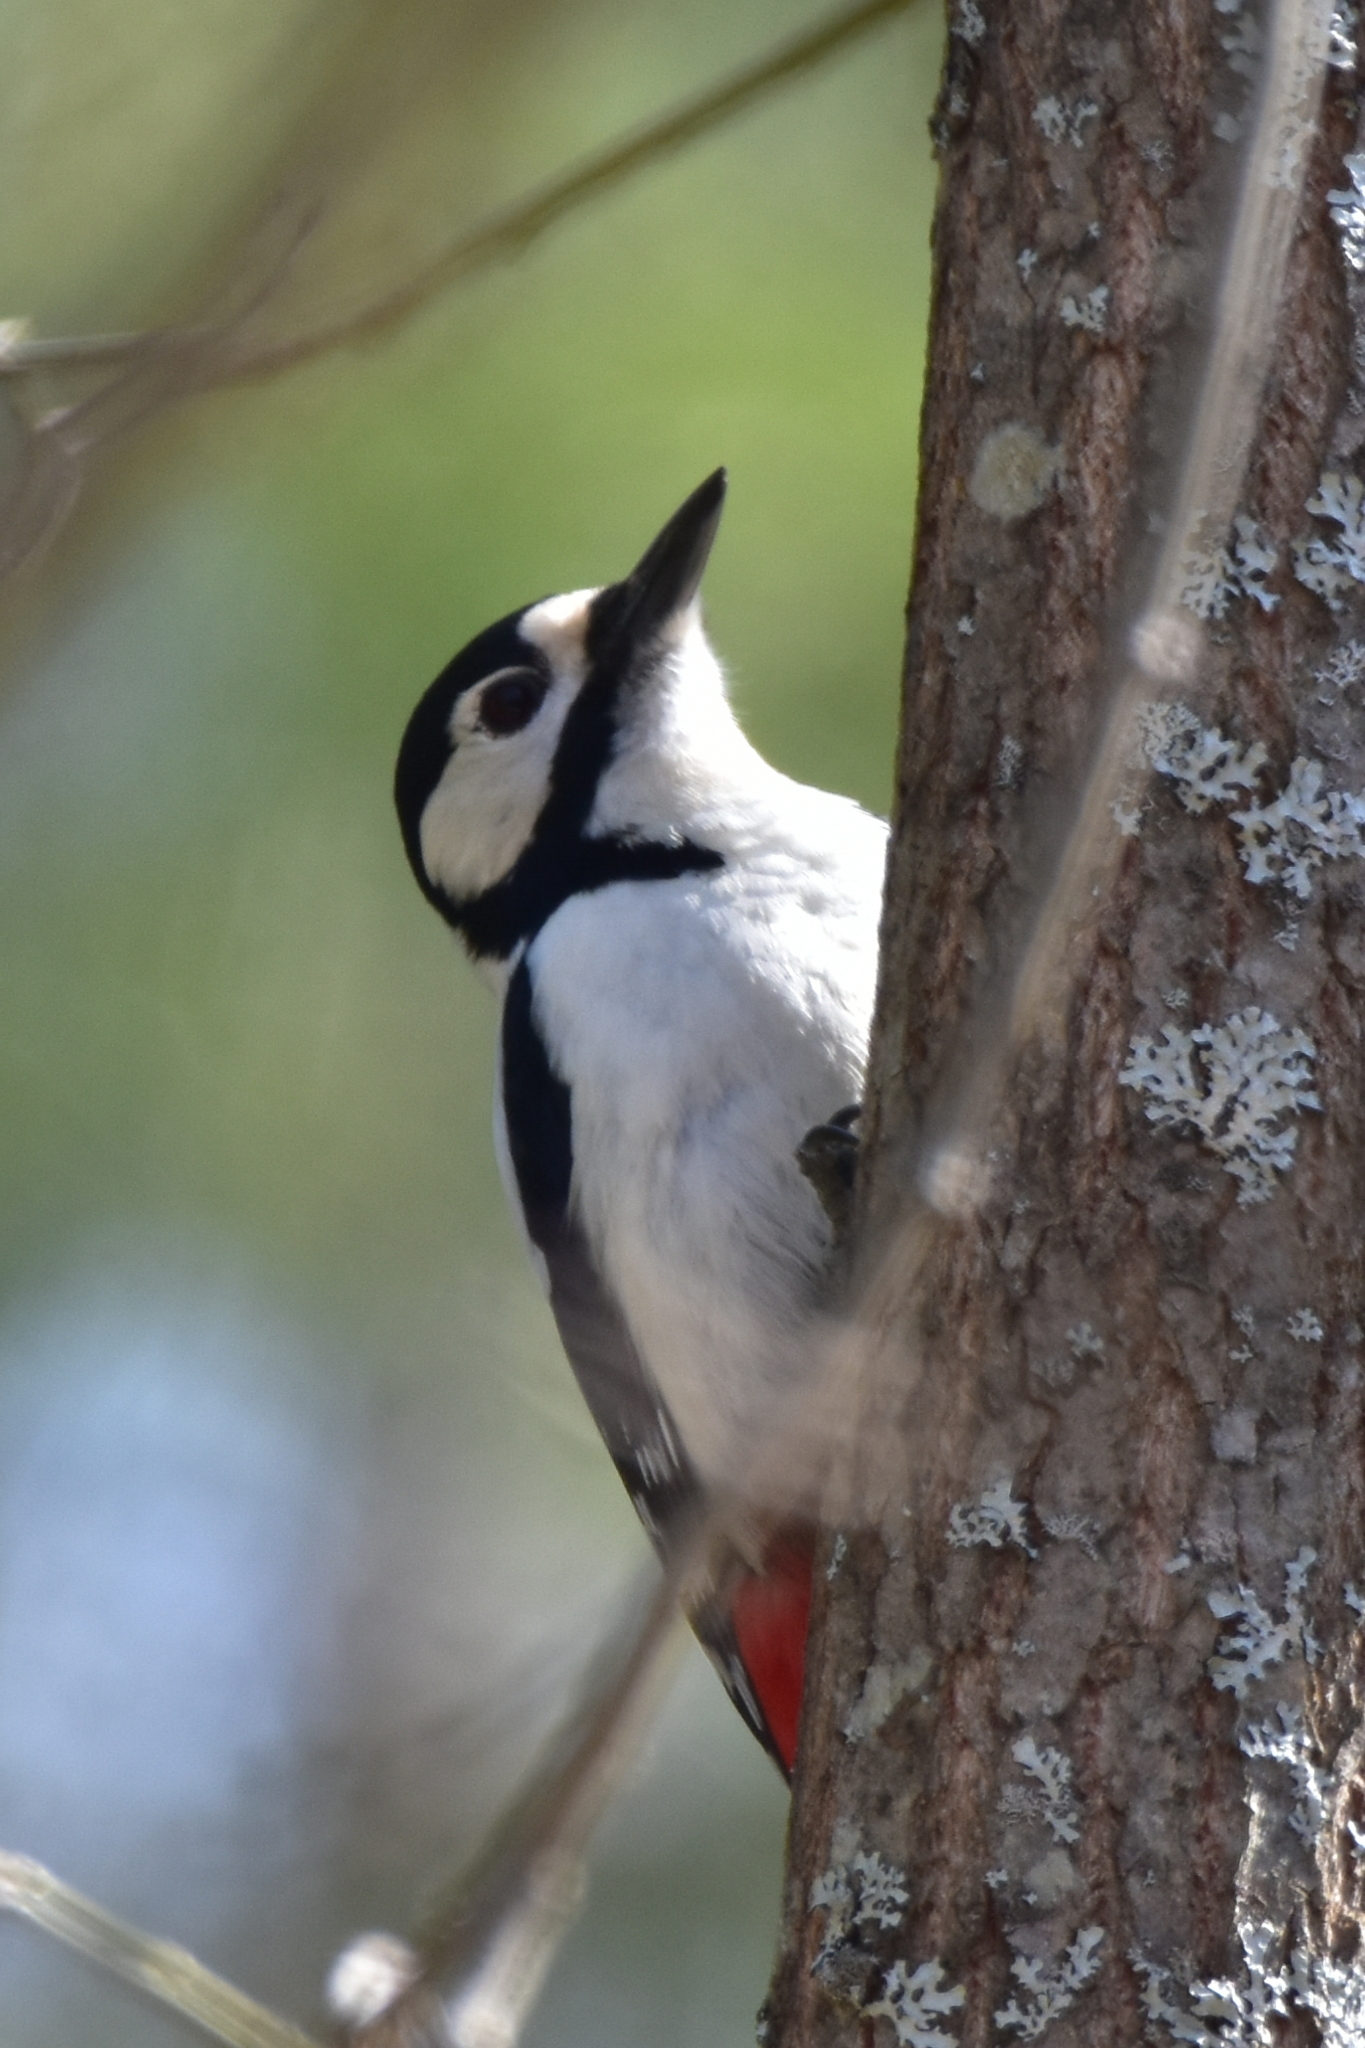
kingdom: Animalia
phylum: Chordata
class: Aves
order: Piciformes
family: Picidae
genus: Dendrocopos
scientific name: Dendrocopos major
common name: Great spotted woodpecker
